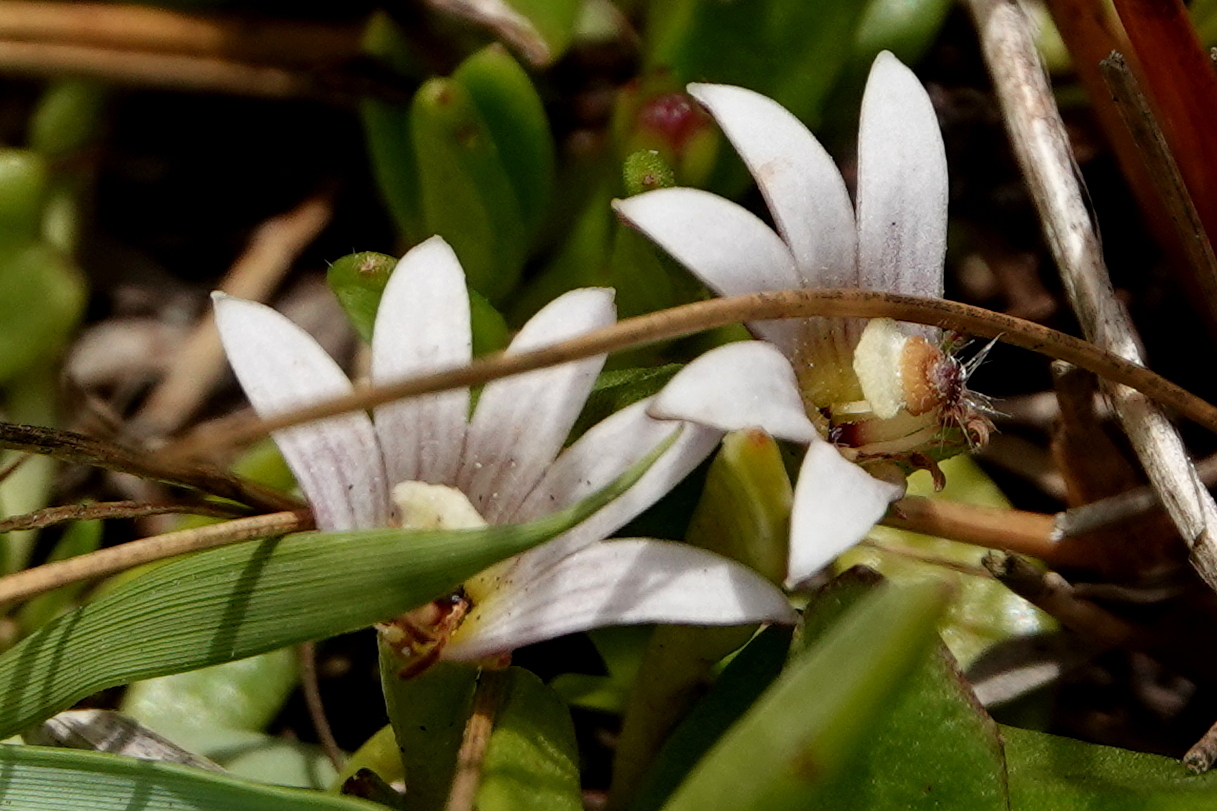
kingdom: Plantae
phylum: Tracheophyta
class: Magnoliopsida
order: Asterales
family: Goodeniaceae
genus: Goodenia
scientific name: Goodenia radicans
